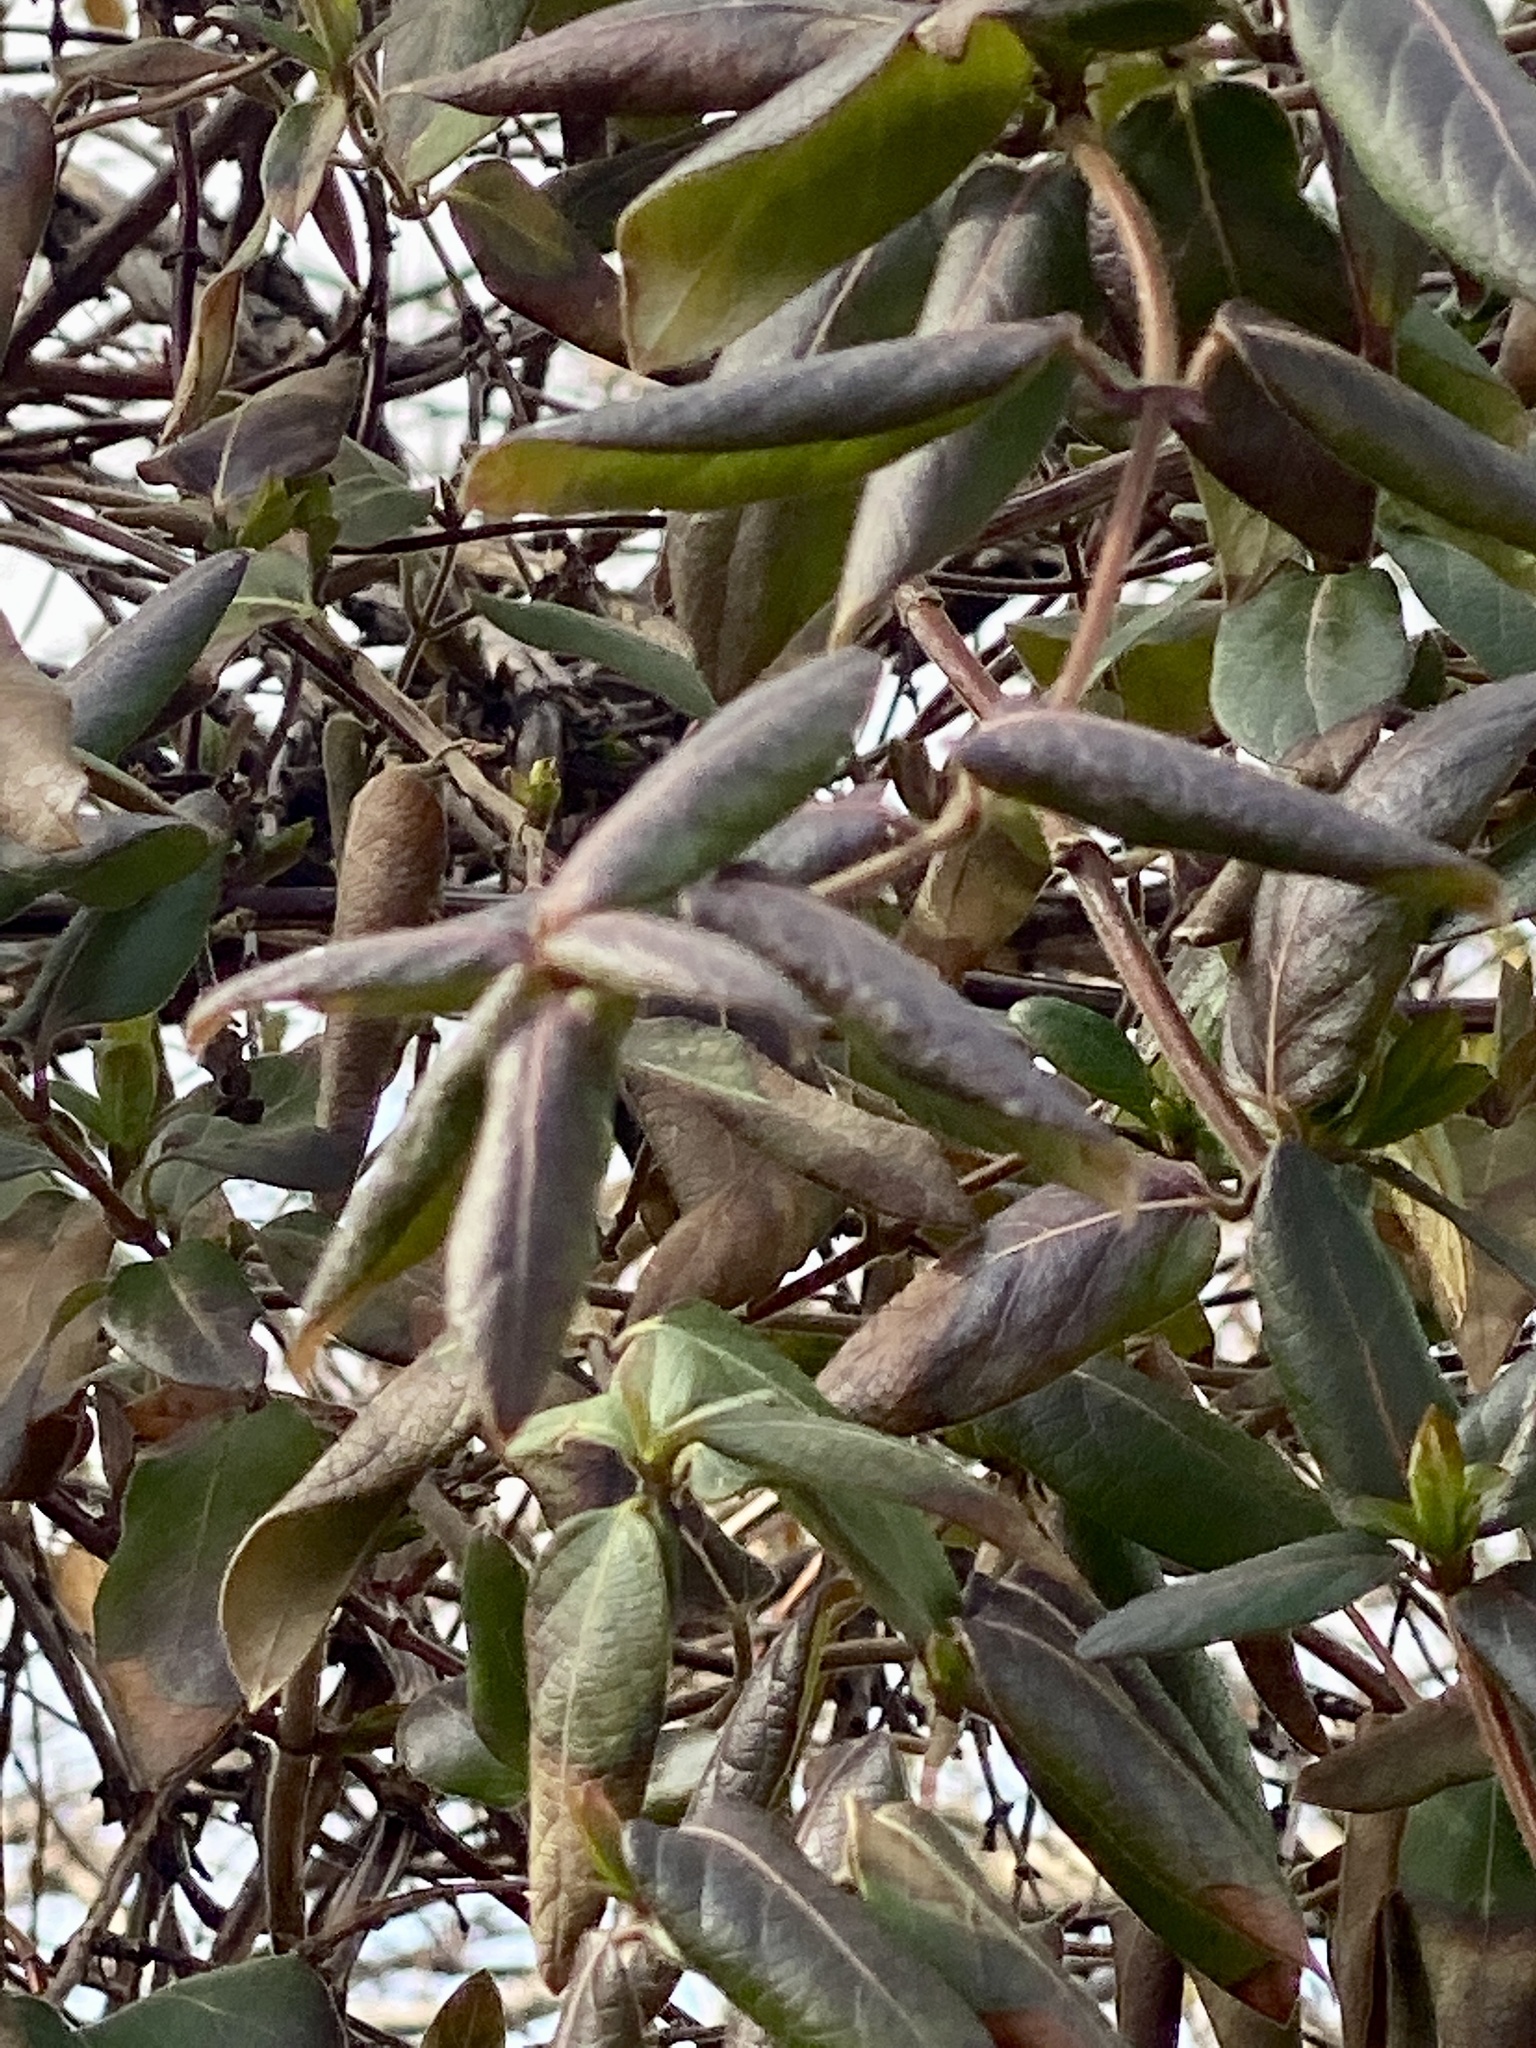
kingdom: Plantae
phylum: Tracheophyta
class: Magnoliopsida
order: Dipsacales
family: Caprifoliaceae
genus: Lonicera
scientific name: Lonicera japonica
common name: Japanese honeysuckle
